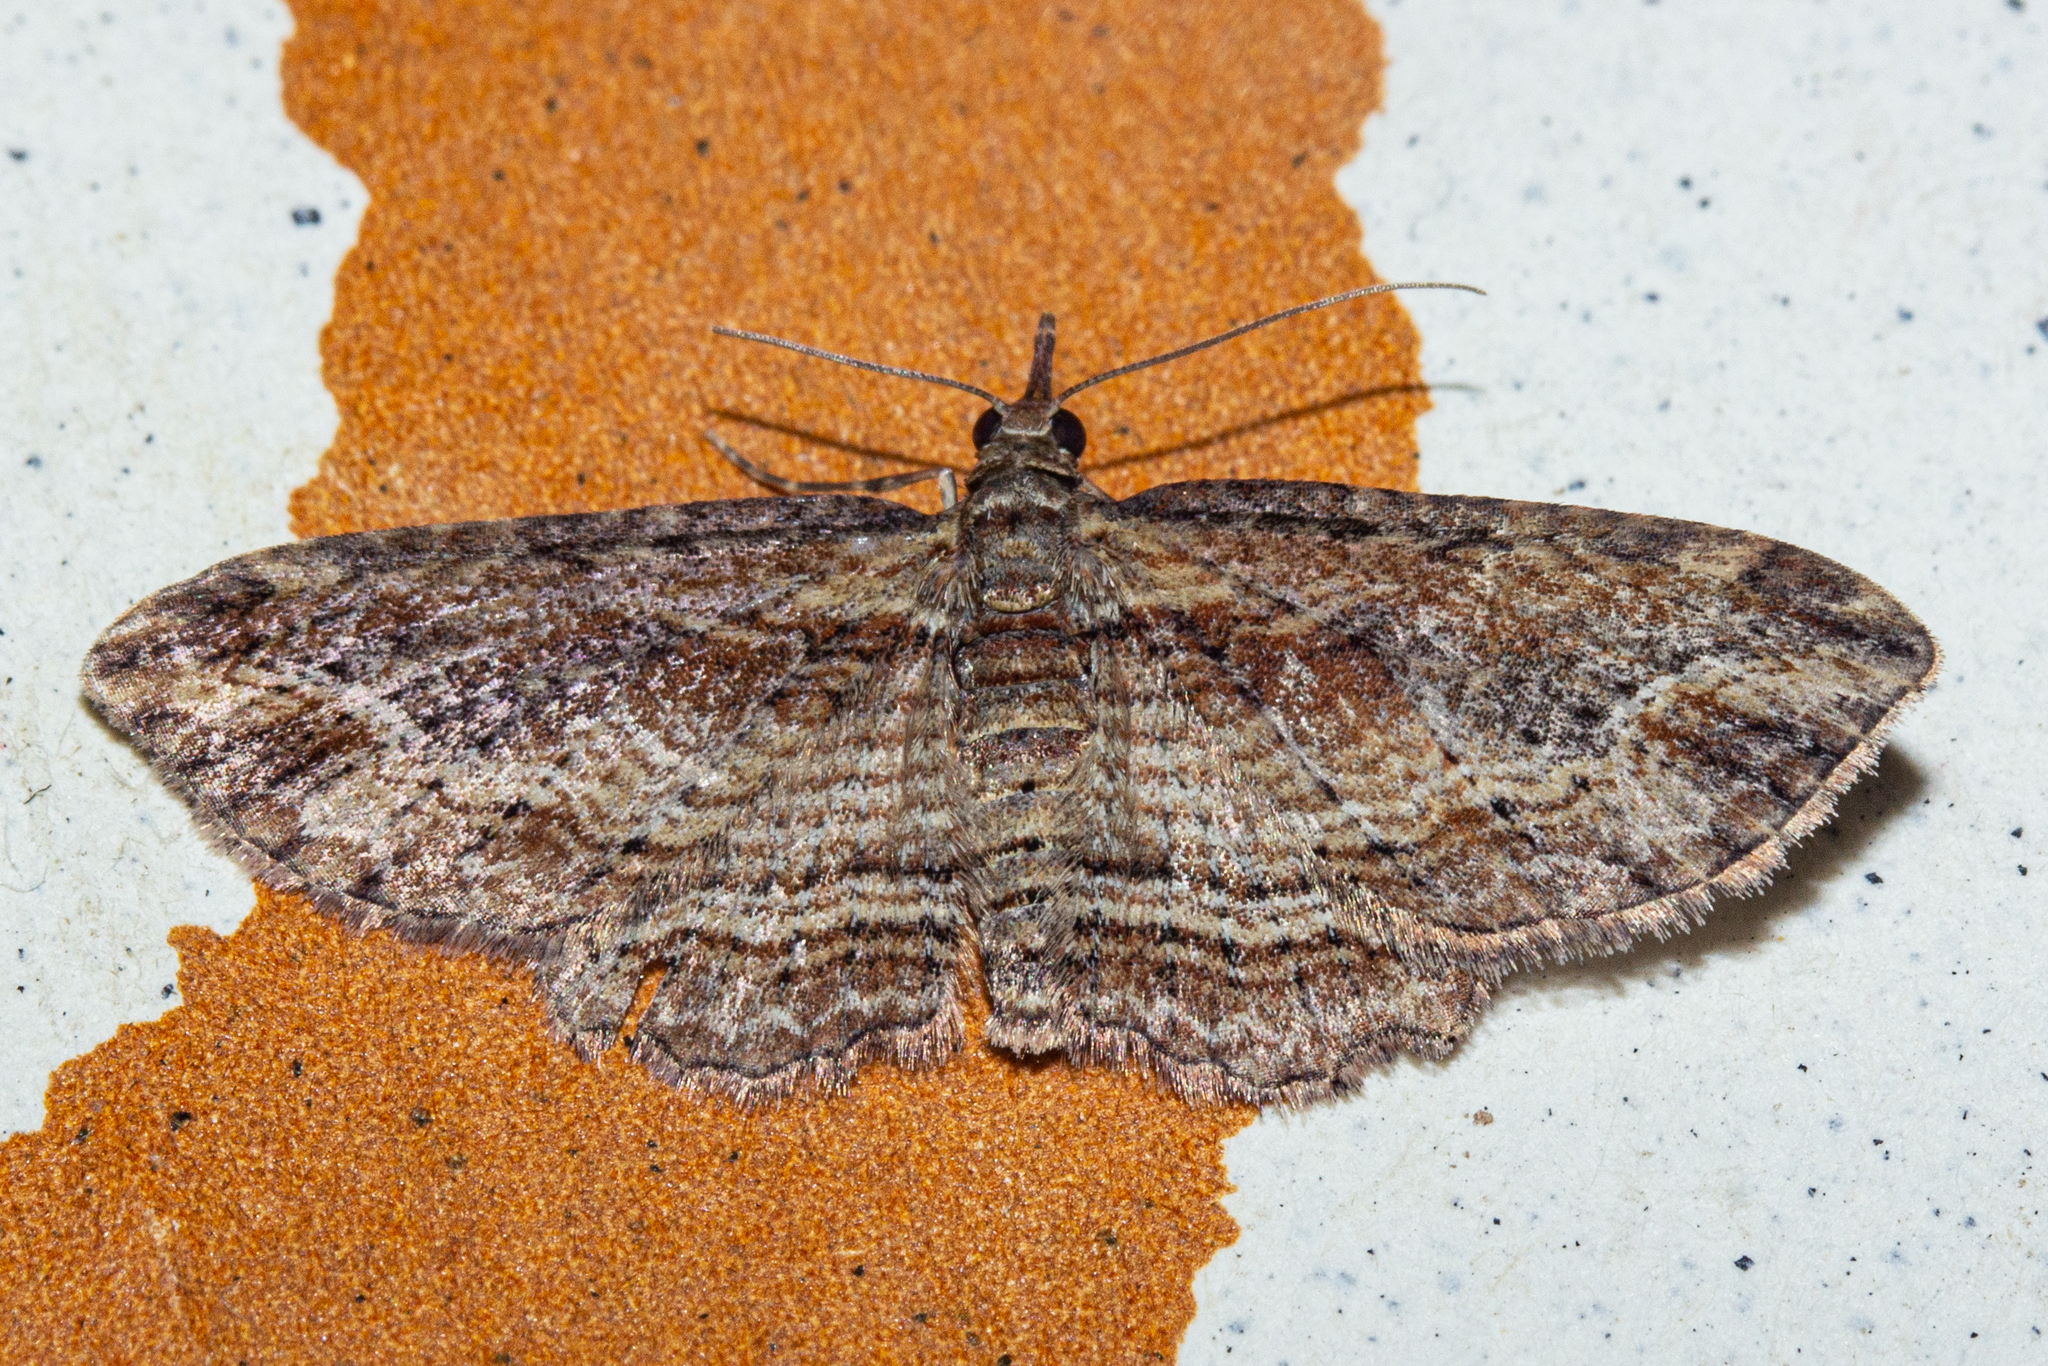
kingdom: Animalia
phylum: Arthropoda
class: Insecta
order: Lepidoptera
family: Geometridae
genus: Chloroclystis
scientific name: Chloroclystis filata
